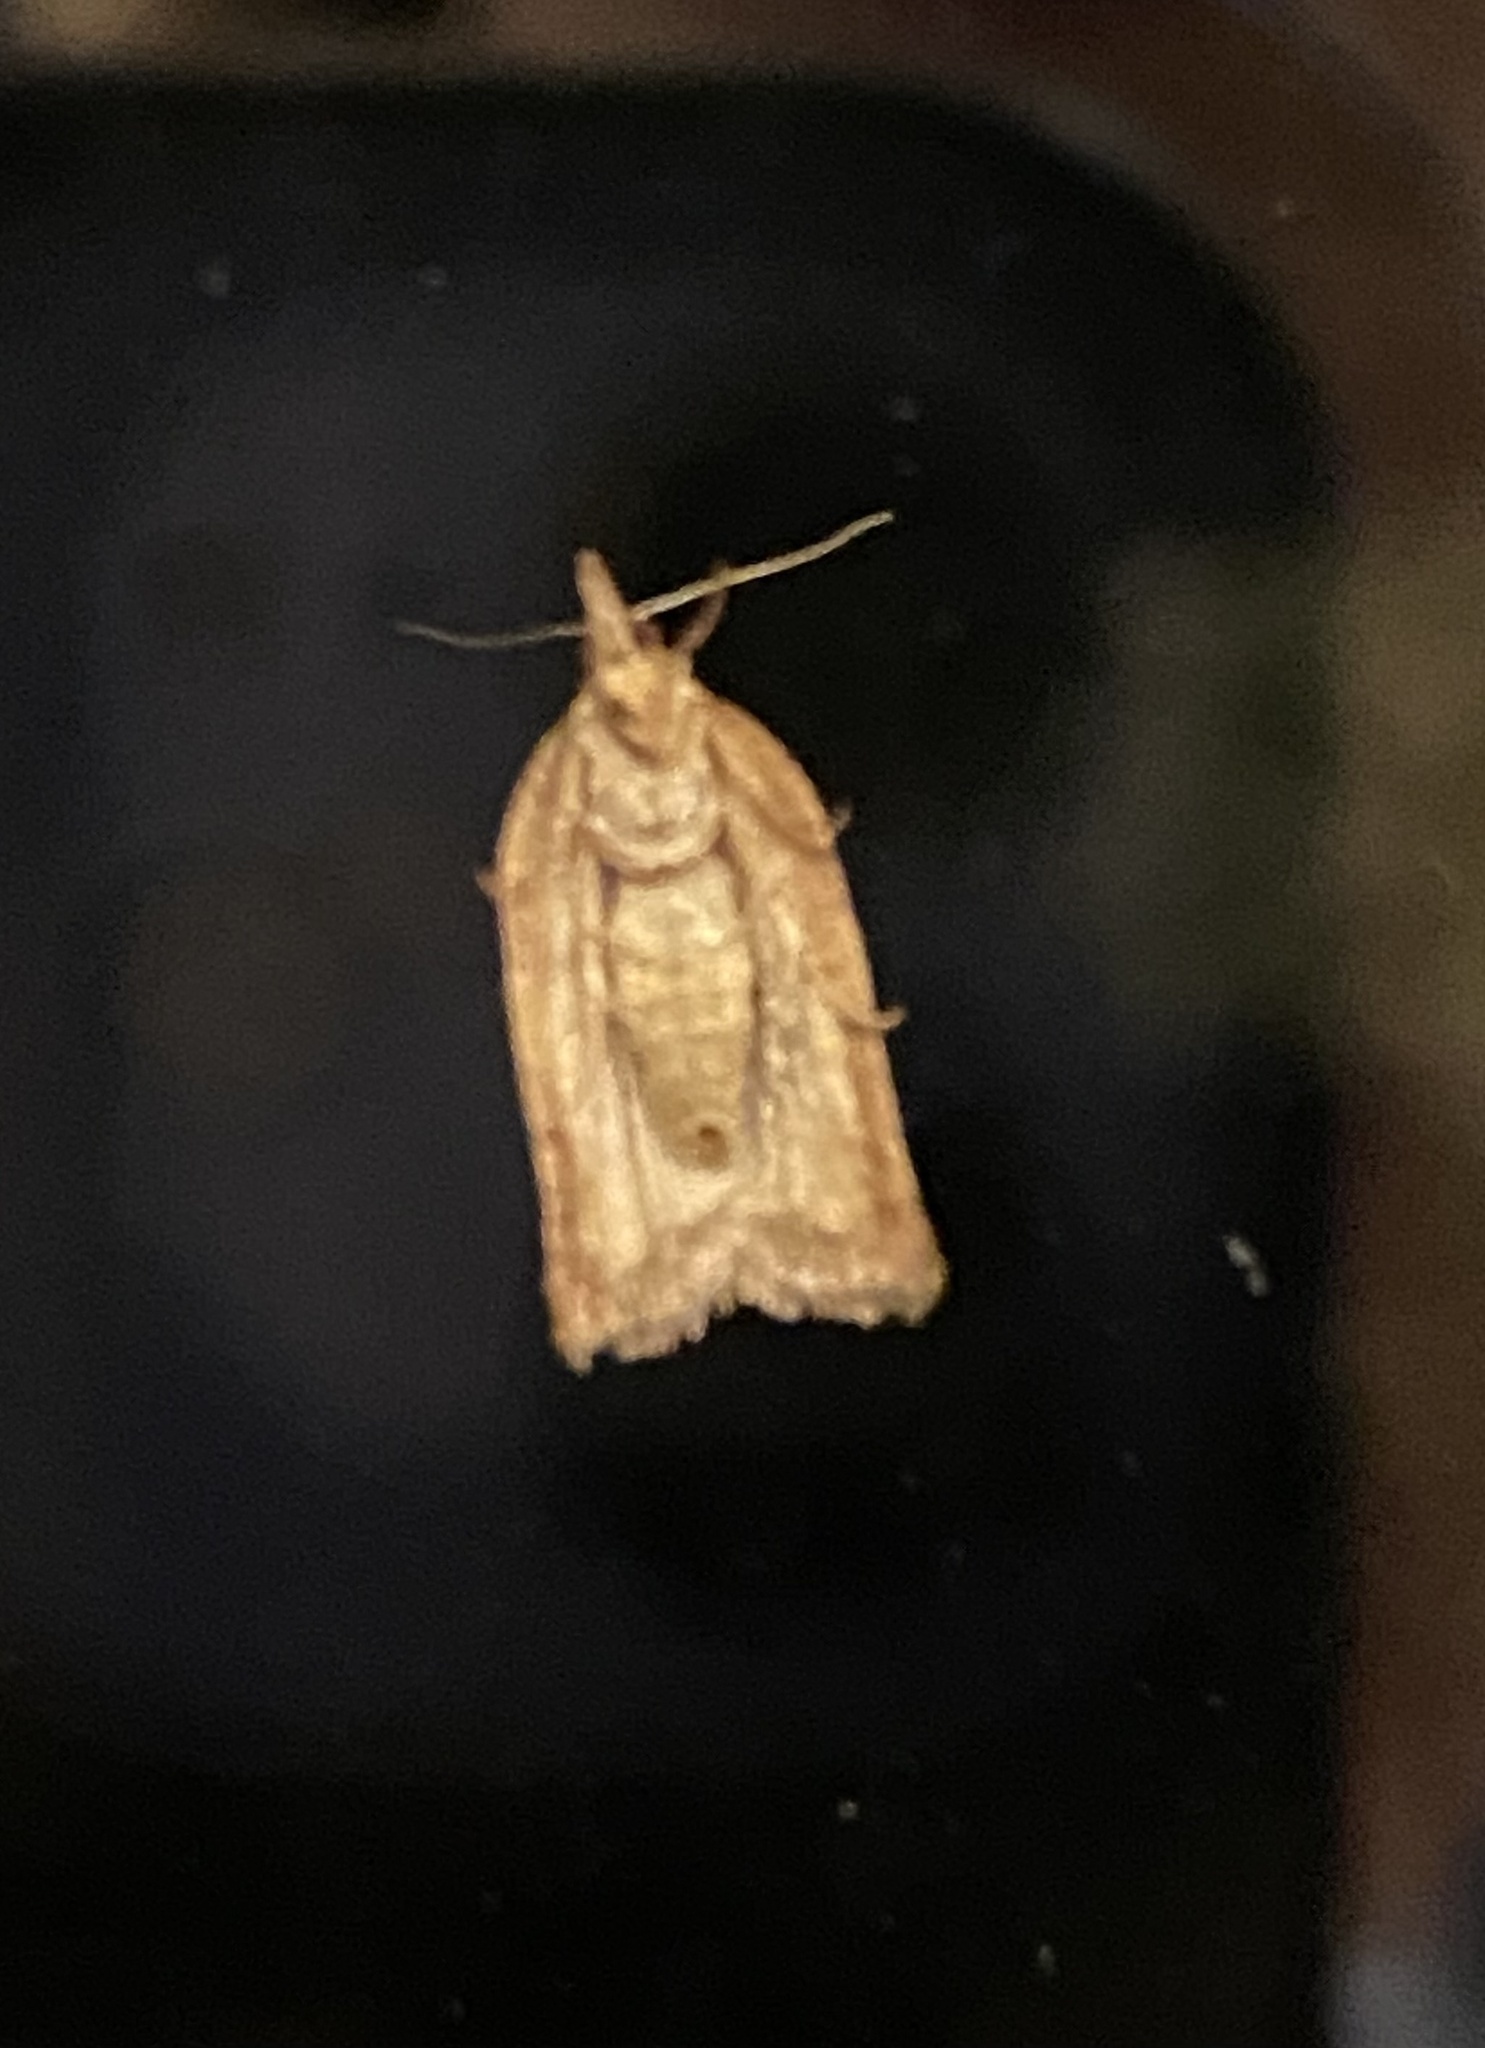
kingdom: Animalia
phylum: Arthropoda
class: Insecta
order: Lepidoptera
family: Tortricidae
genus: Epiphyas
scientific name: Epiphyas postvittana
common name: Light brown apple moth
